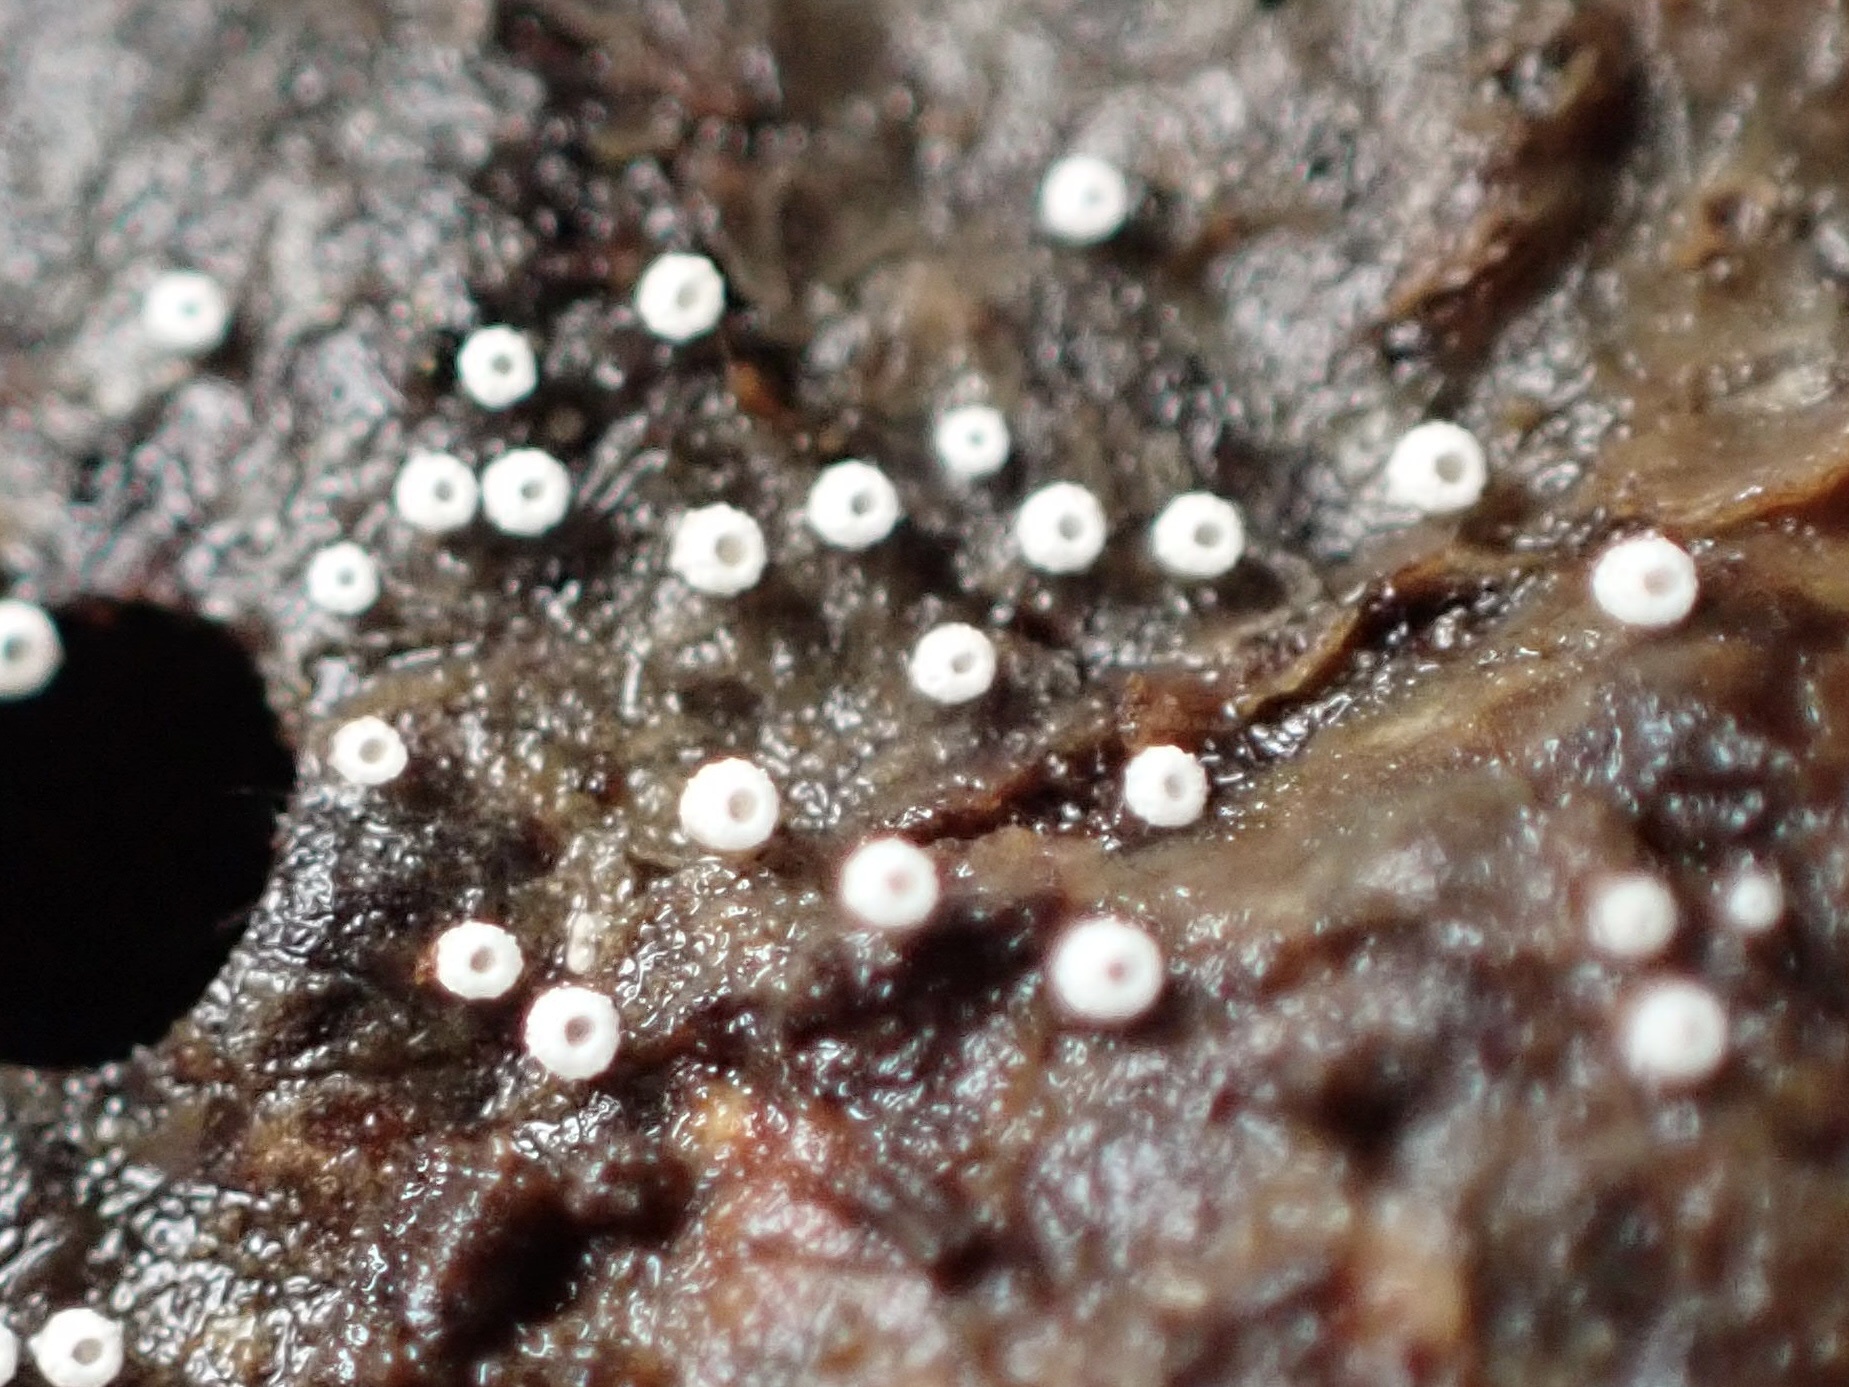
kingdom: Fungi
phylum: Basidiomycota
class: Agaricomycetes
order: Agaricales
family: Marasmiaceae
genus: Henningsomyces
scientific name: Henningsomyces candidus
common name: White tubelet
